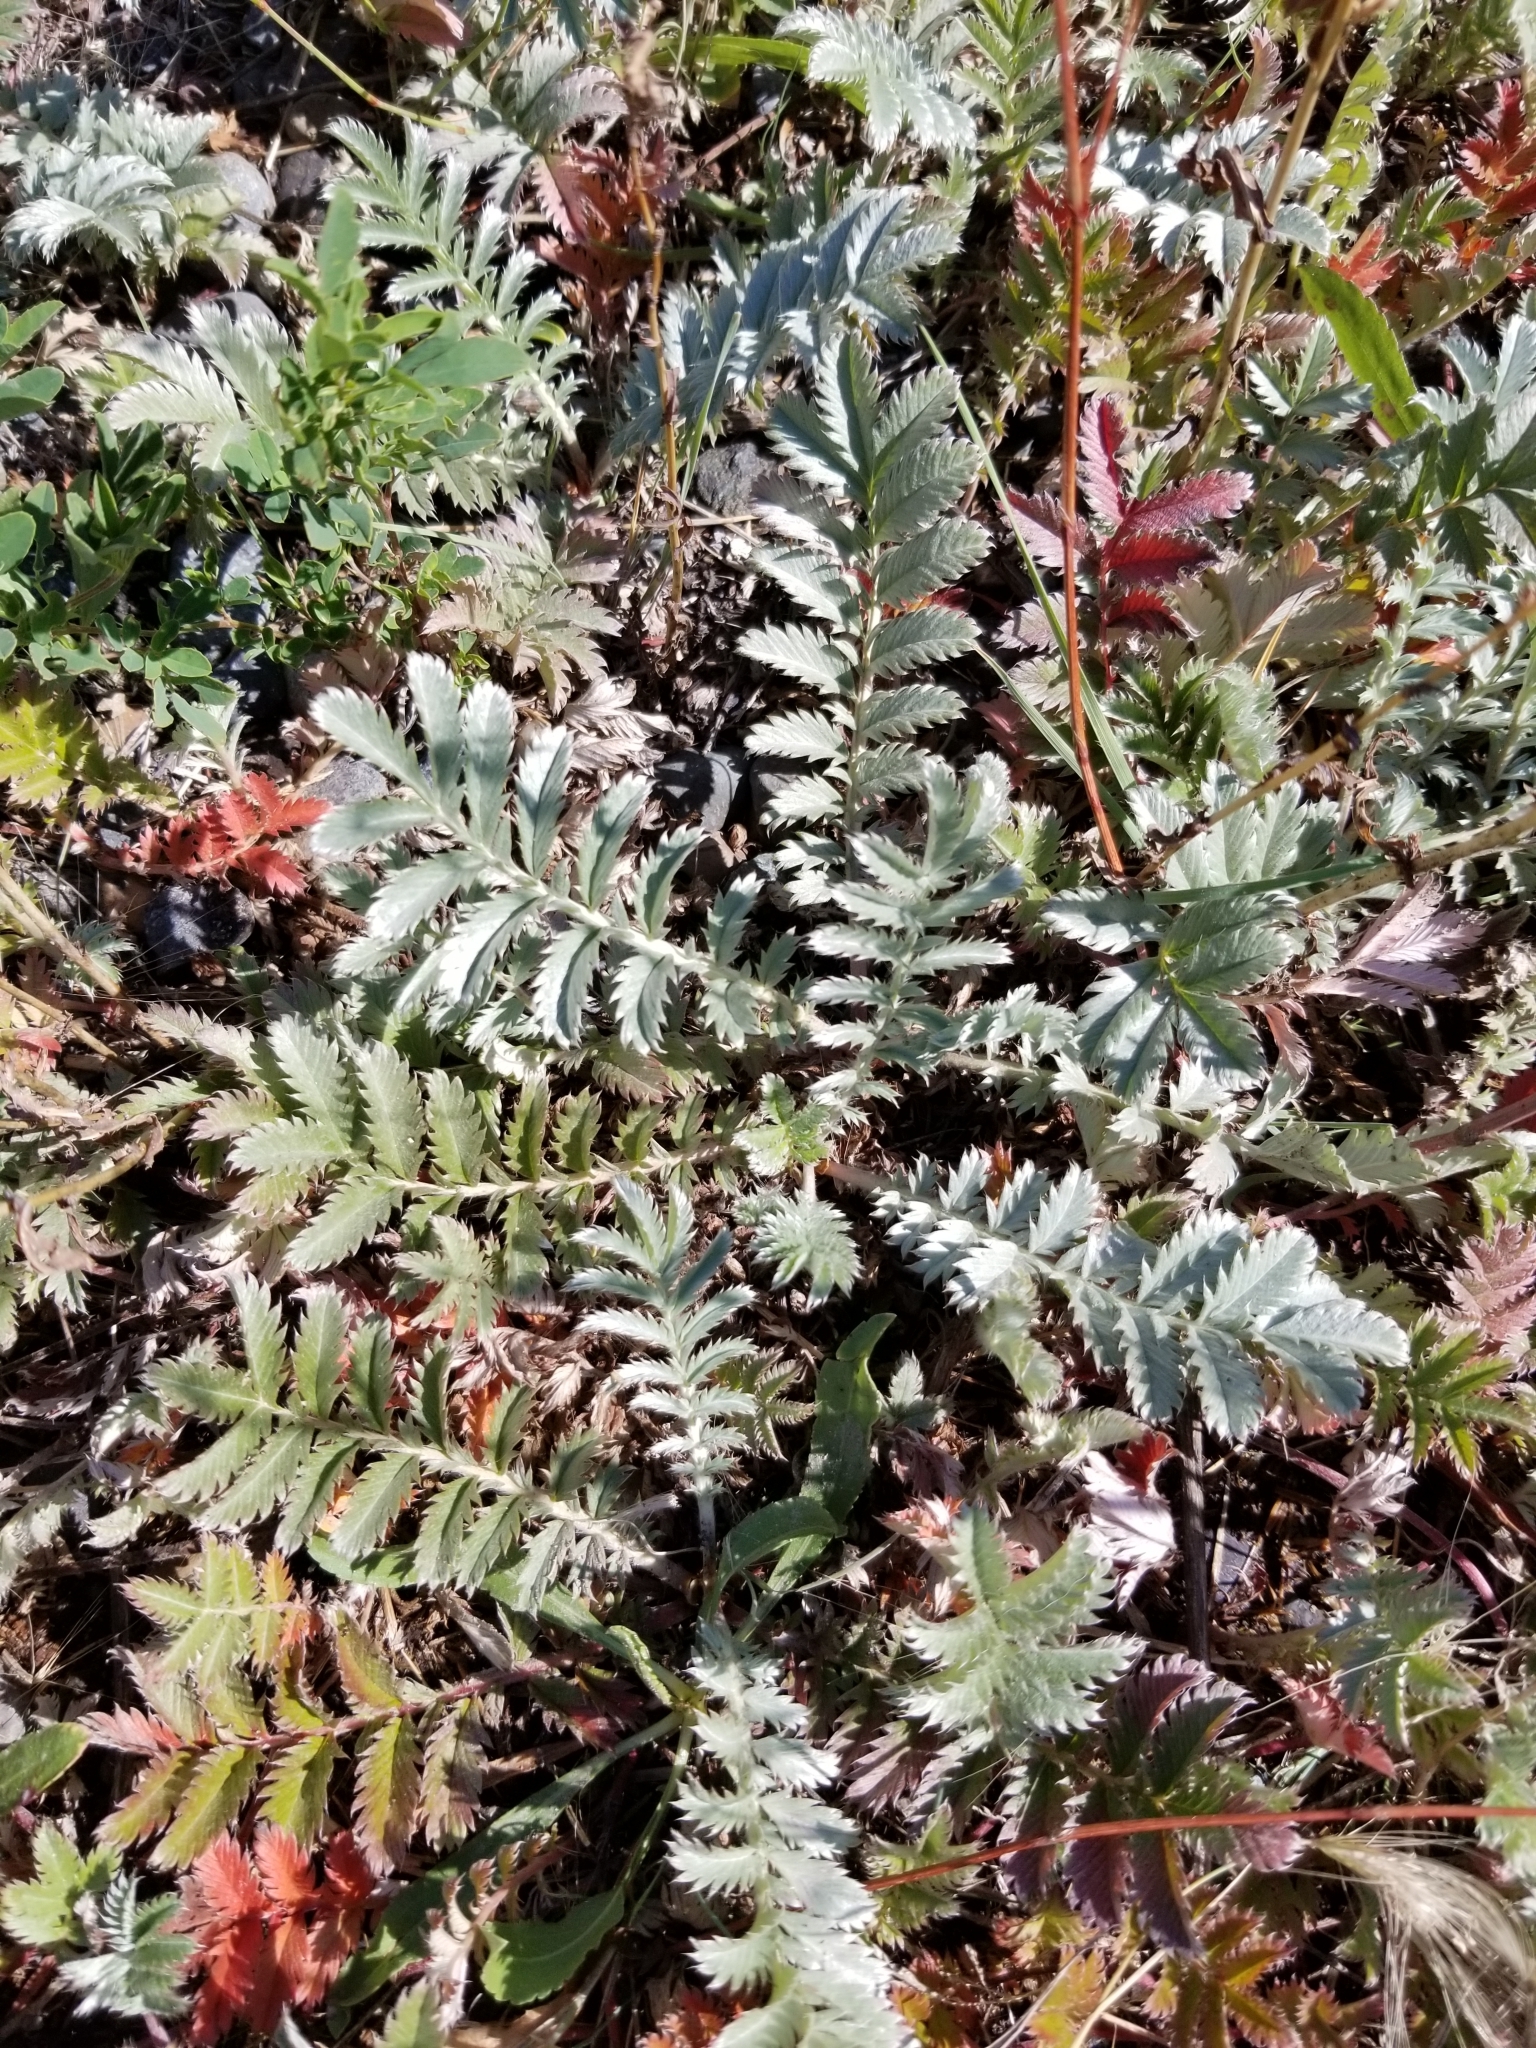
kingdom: Plantae
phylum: Tracheophyta
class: Magnoliopsida
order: Rosales
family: Rosaceae
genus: Argentina
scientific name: Argentina anserina
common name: Common silverweed
